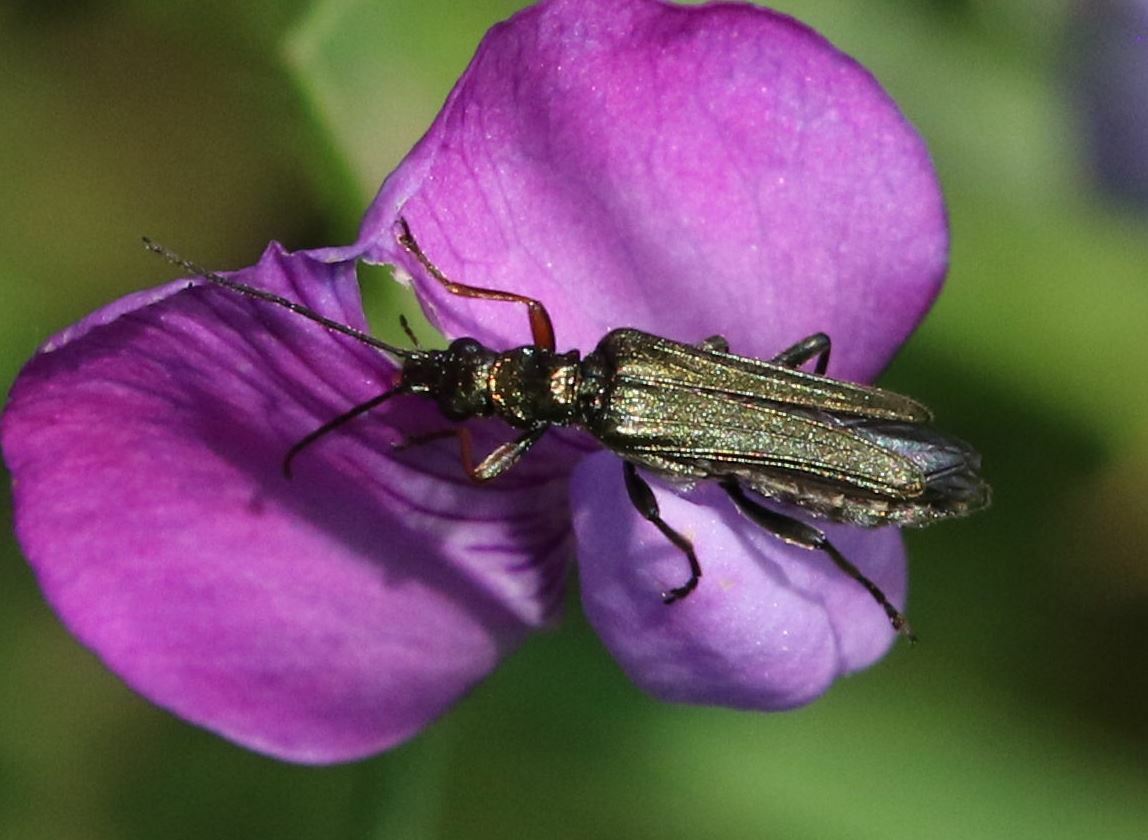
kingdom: Animalia
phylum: Arthropoda
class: Insecta
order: Coleoptera
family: Oedemeridae
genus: Oedemera
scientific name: Oedemera flavipes
